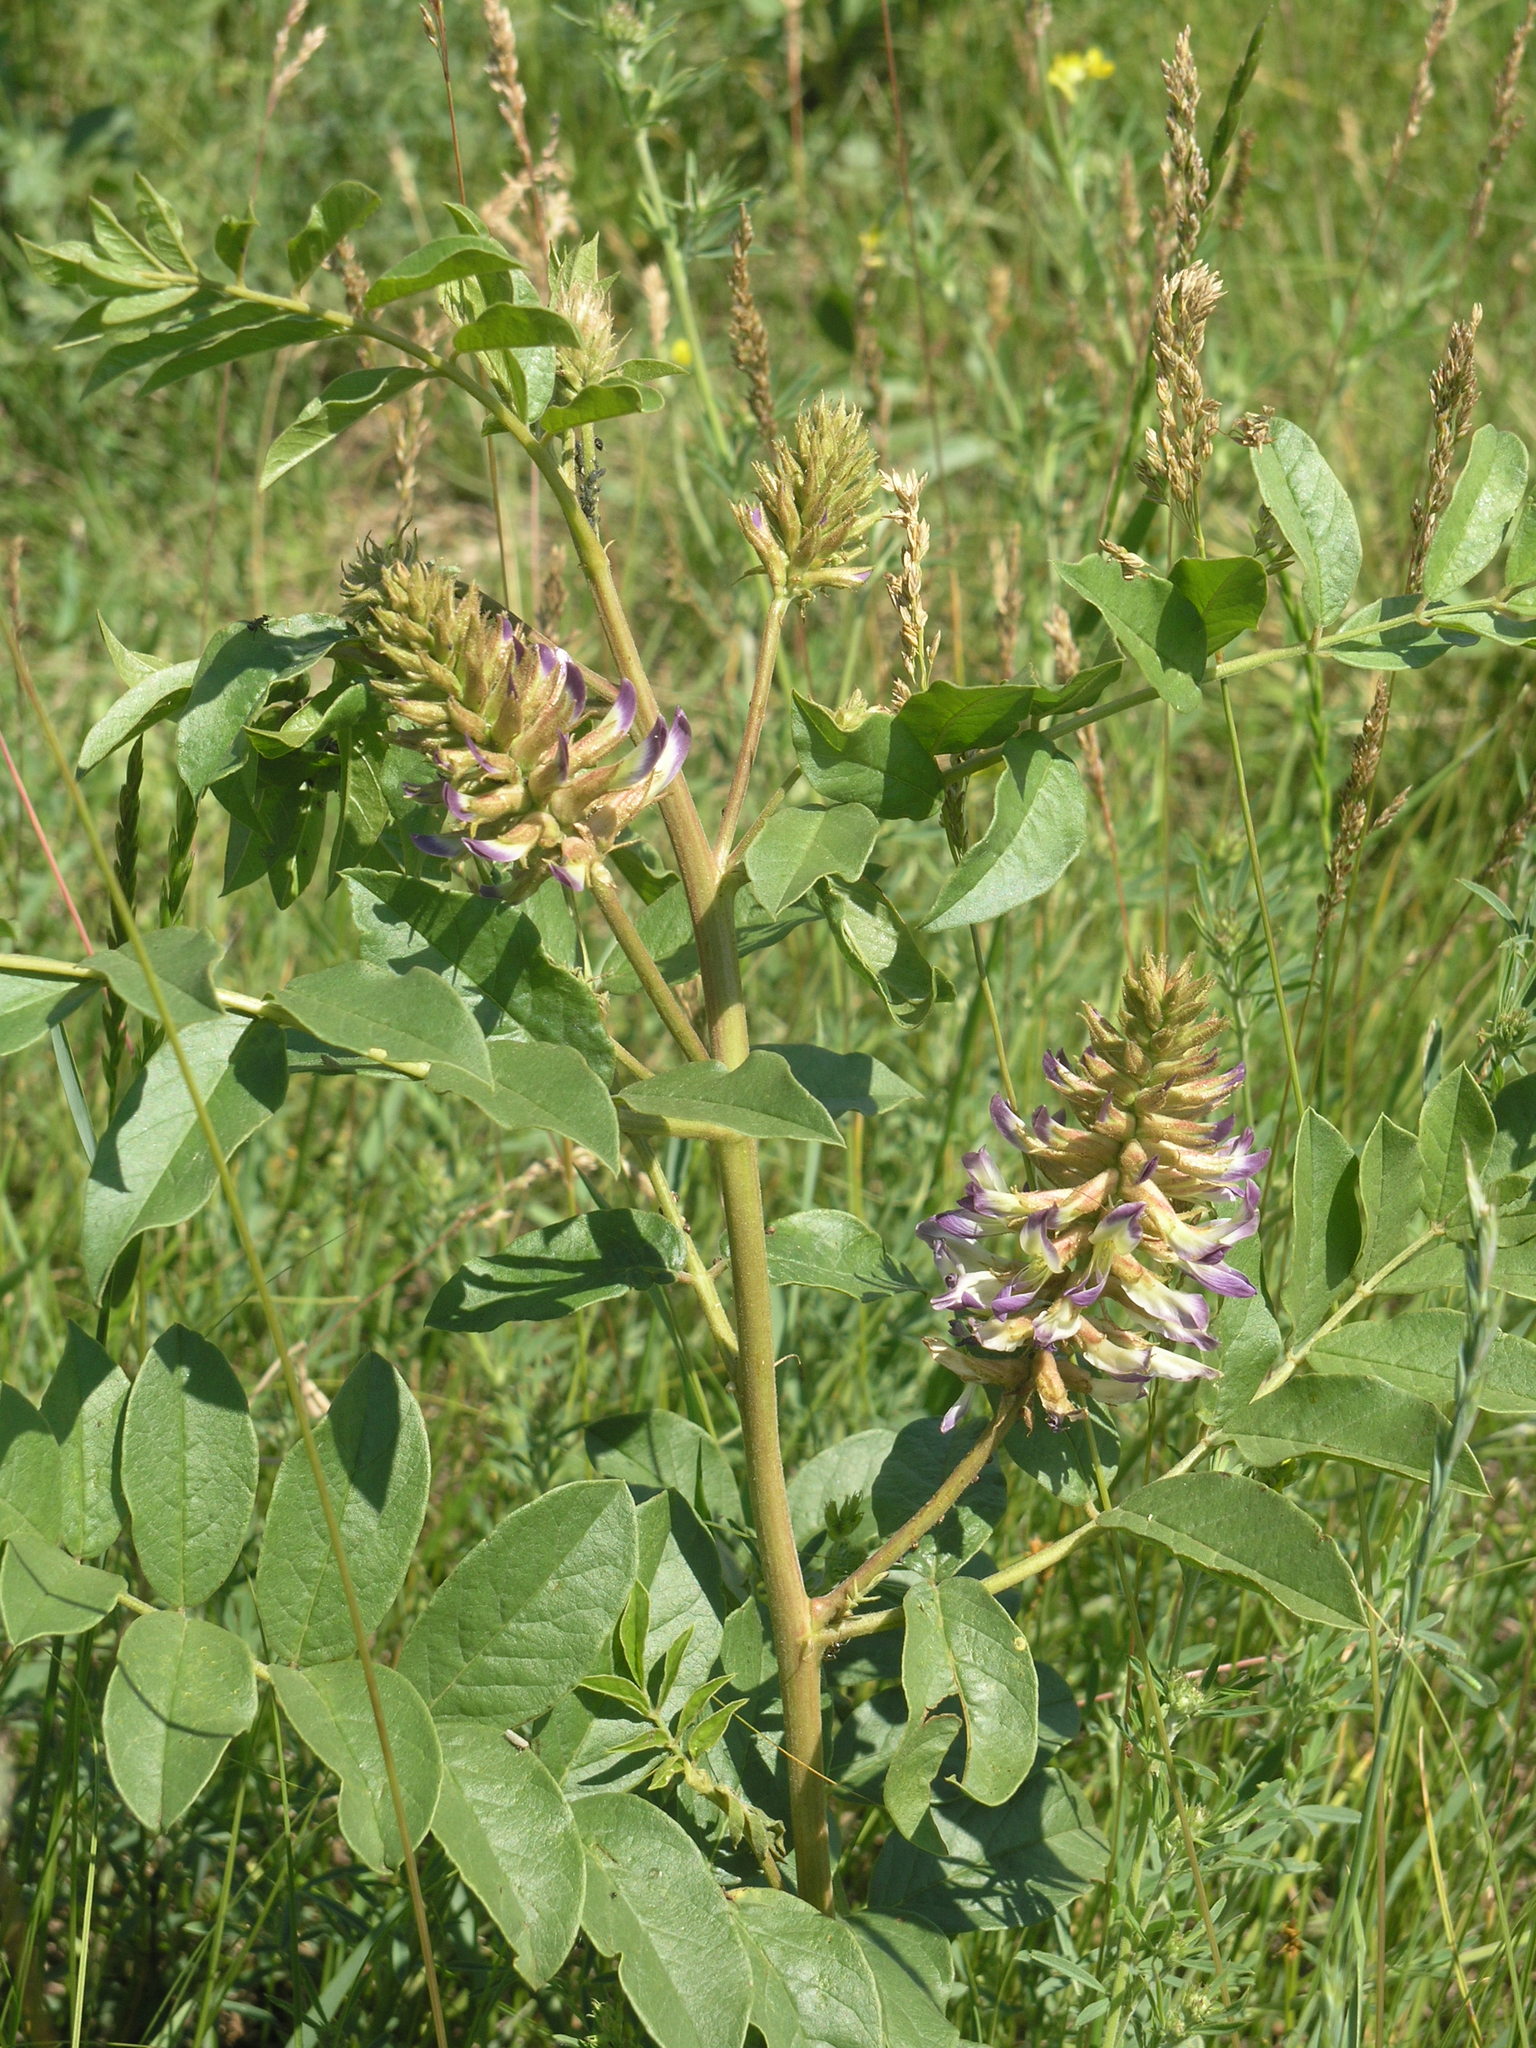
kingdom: Plantae
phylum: Tracheophyta
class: Magnoliopsida
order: Fabales
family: Fabaceae
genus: Glycyrrhiza
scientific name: Glycyrrhiza uralensis
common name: Chinese licorice
